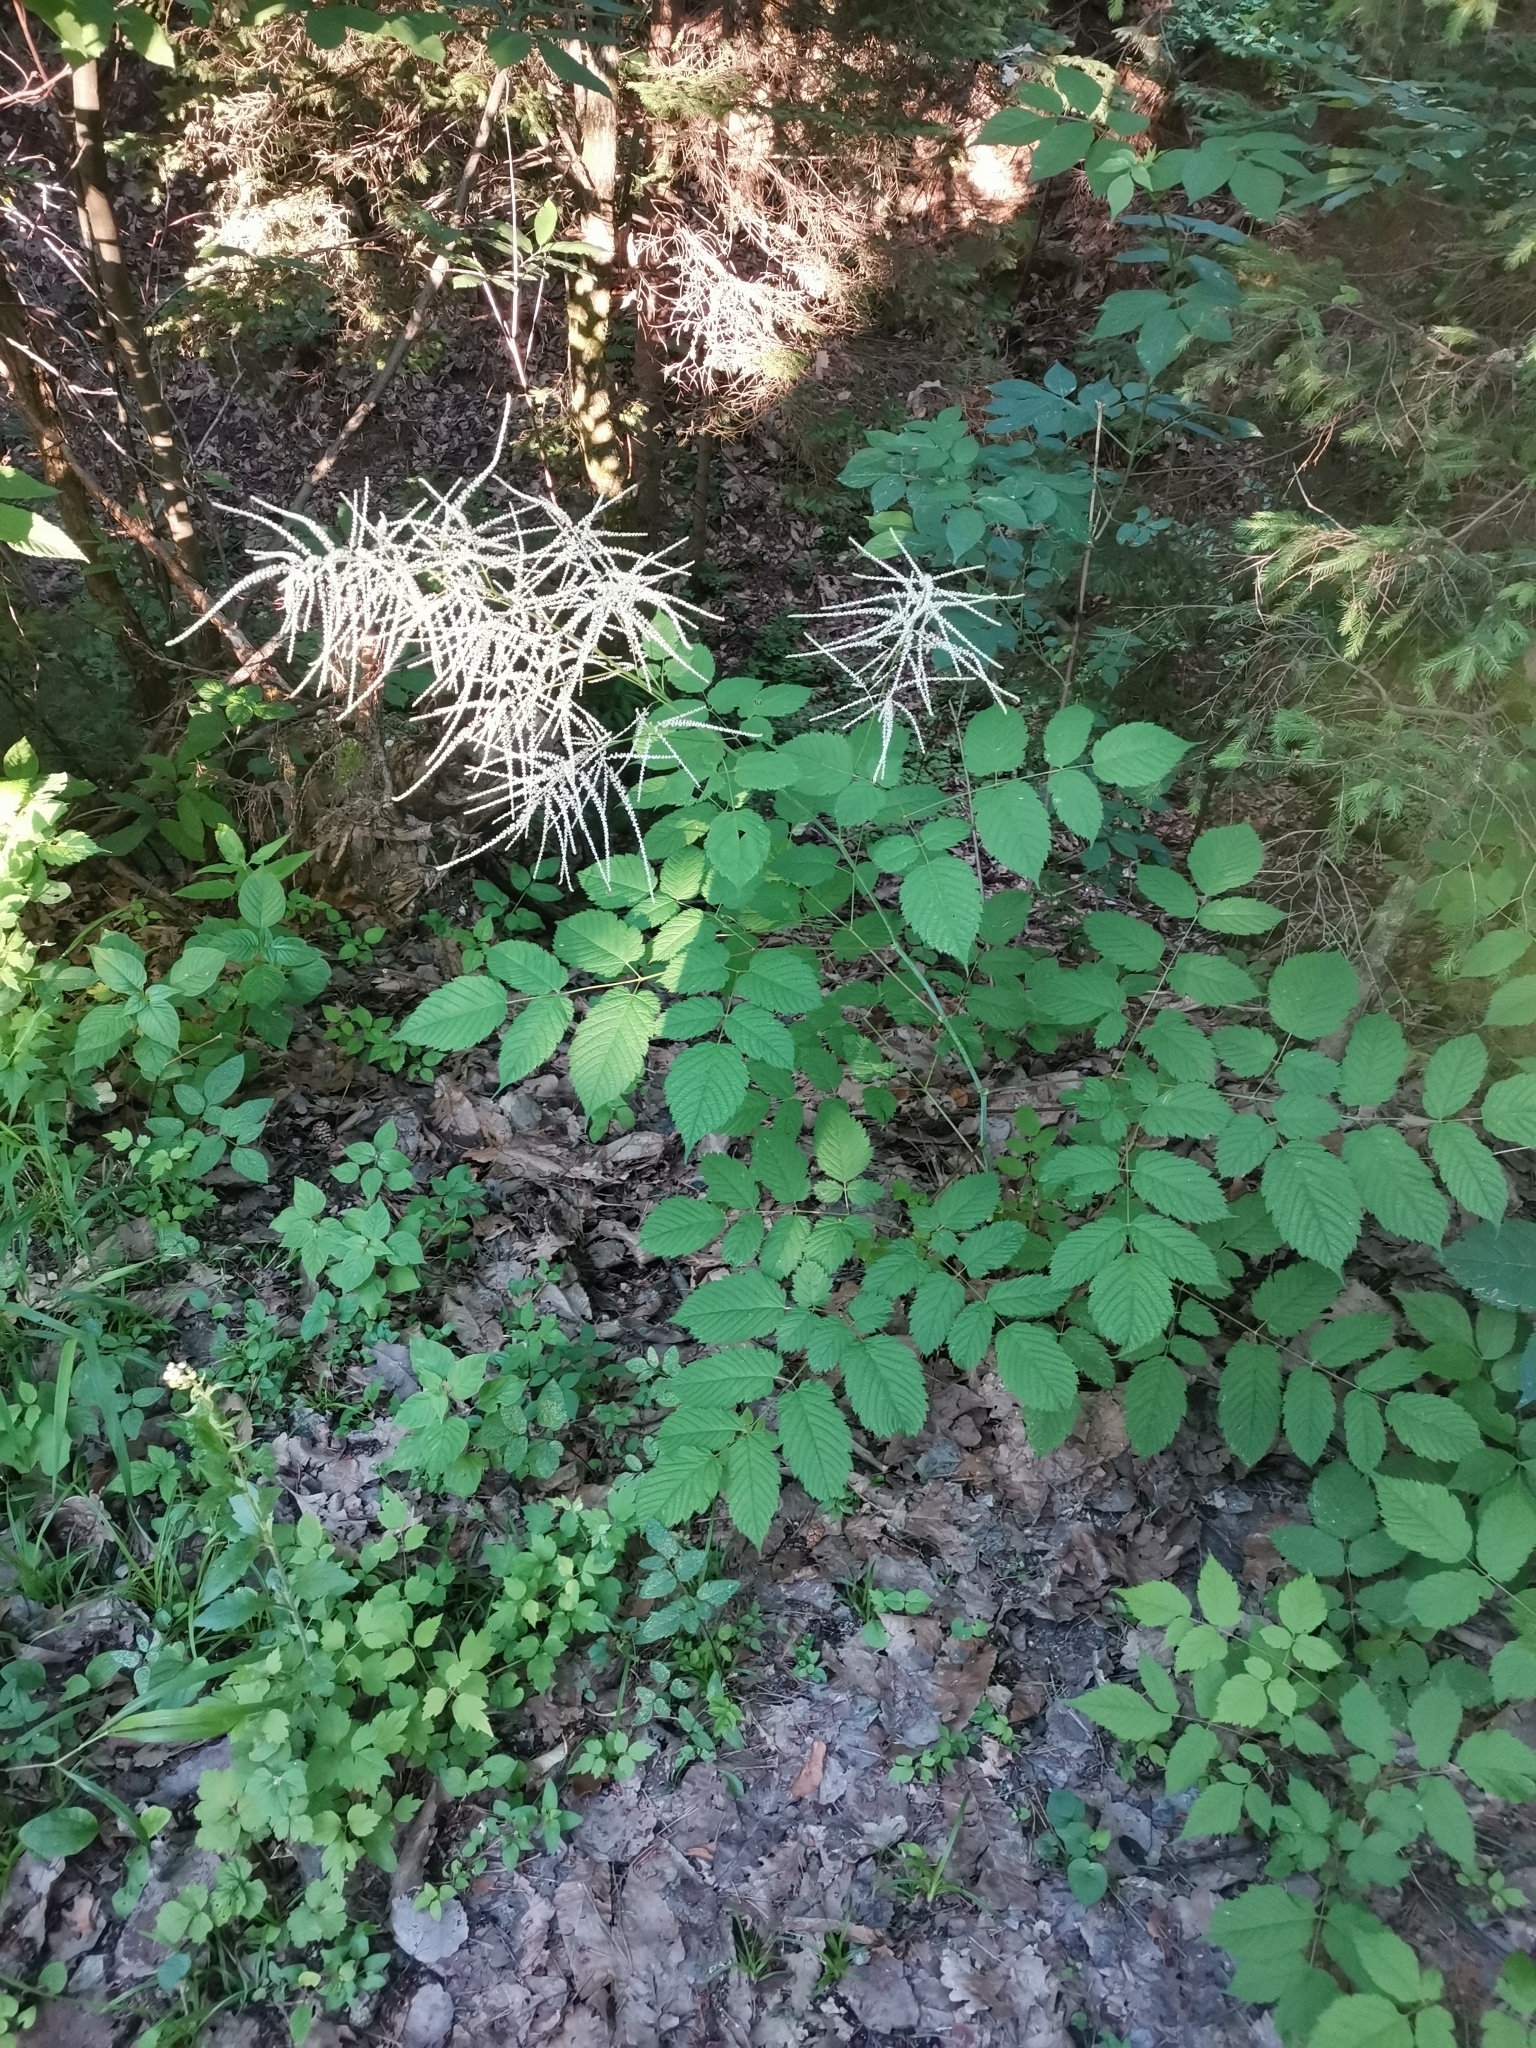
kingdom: Plantae
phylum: Tracheophyta
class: Magnoliopsida
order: Rosales
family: Rosaceae
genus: Aruncus
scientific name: Aruncus dioicus
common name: Buck's-beard
